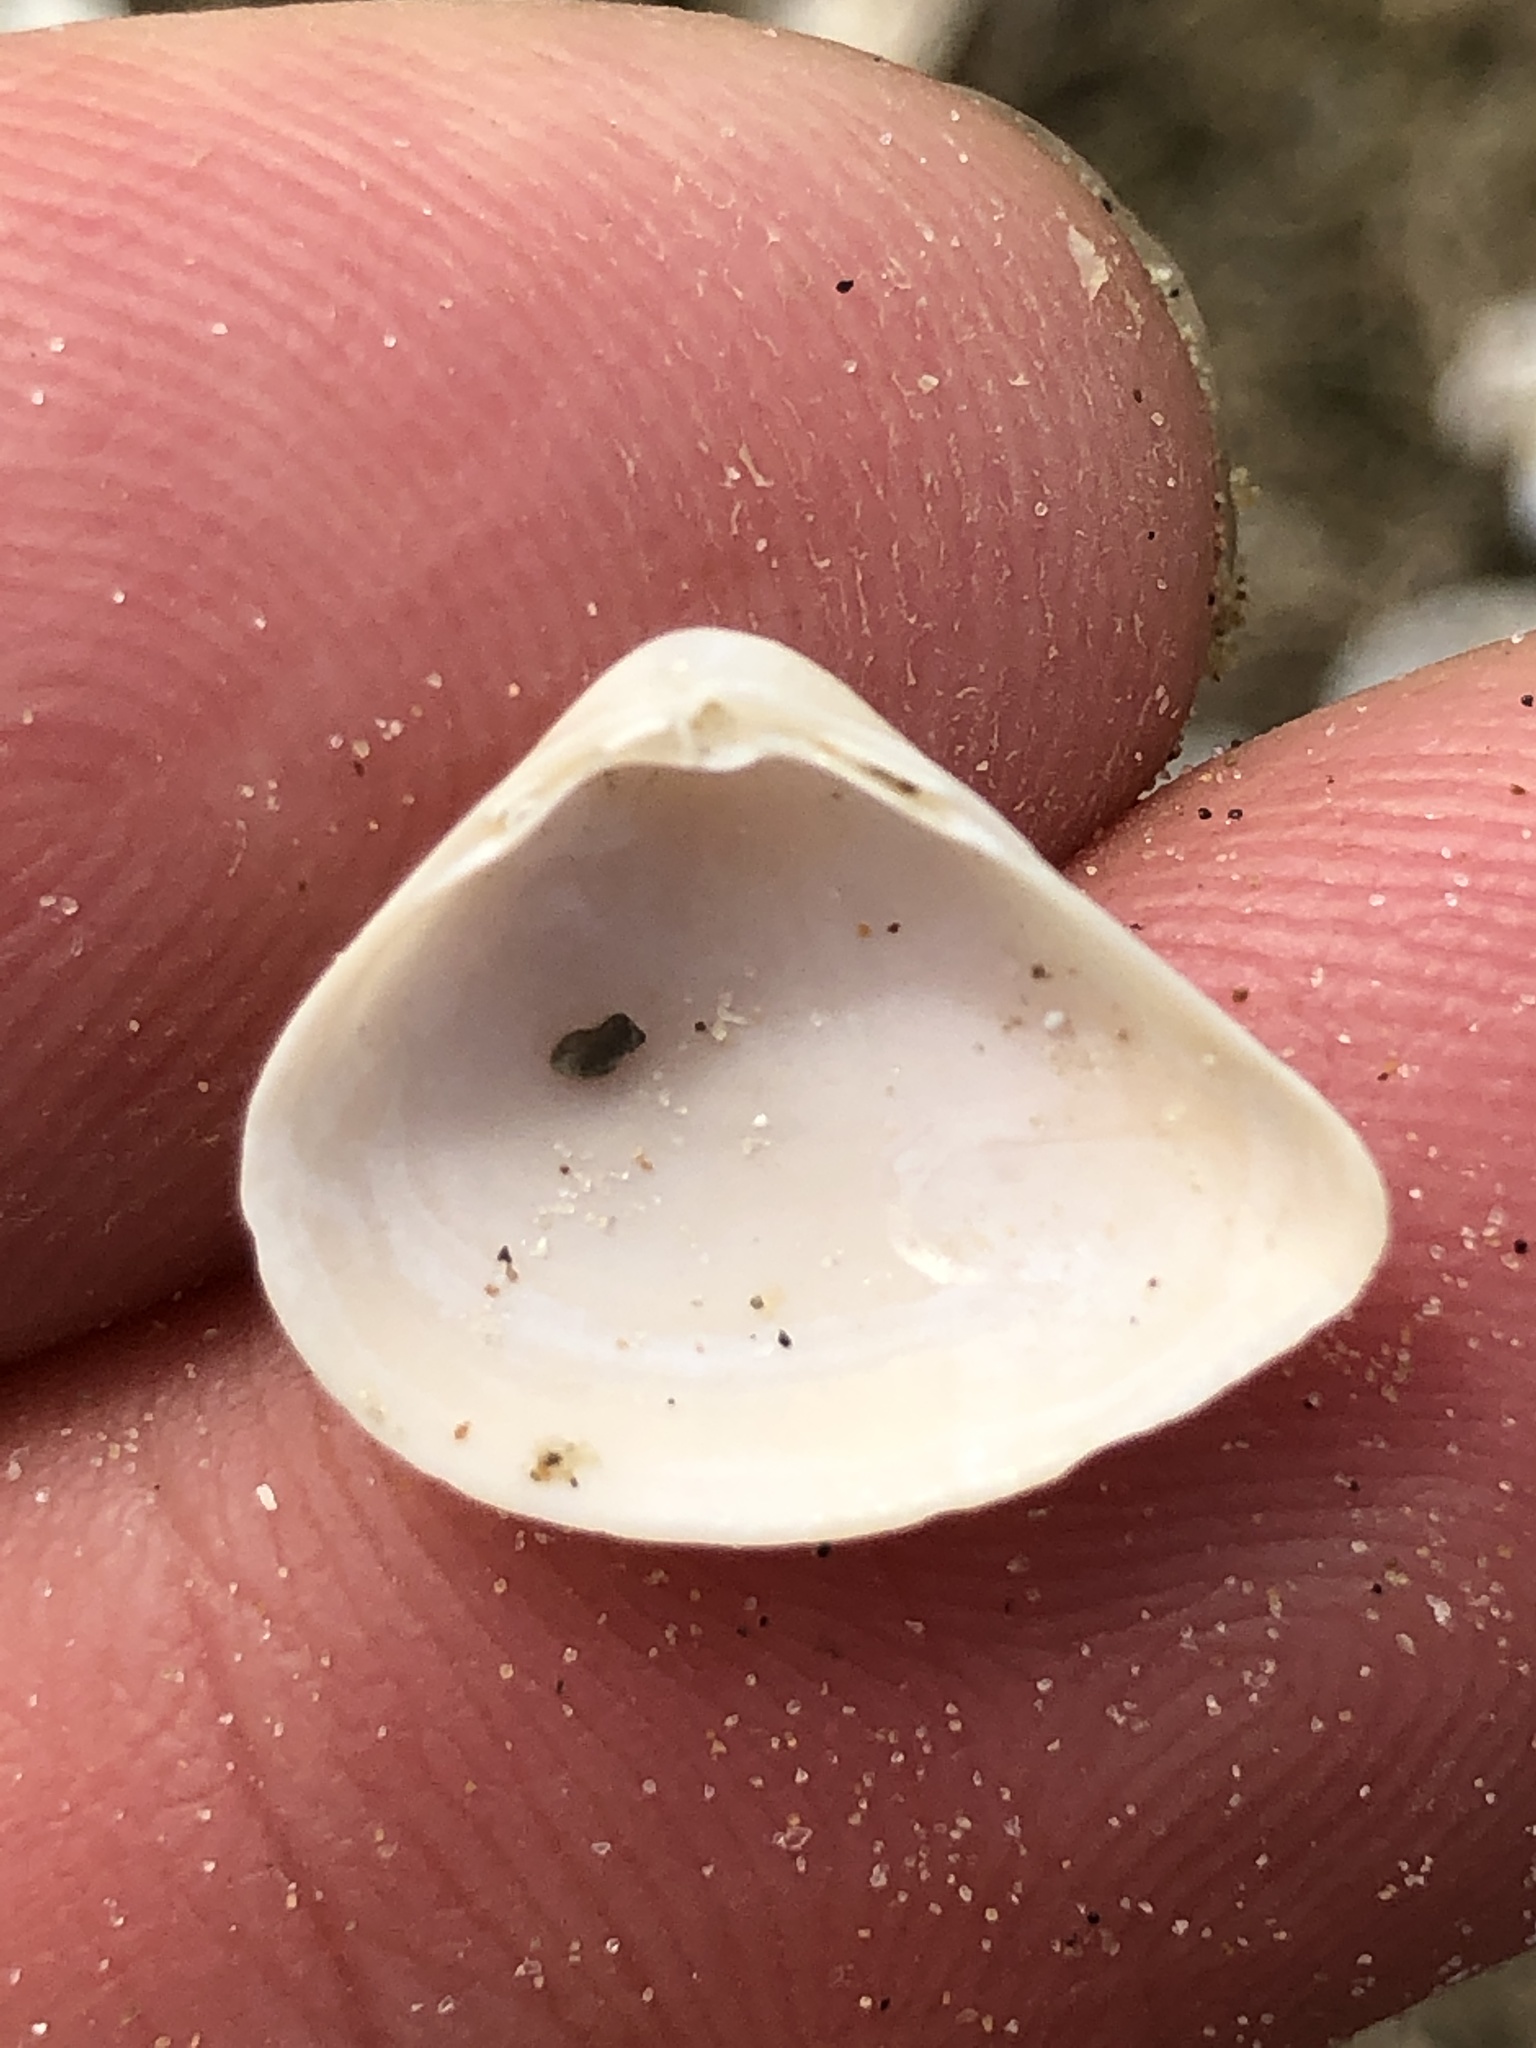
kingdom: Animalia
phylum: Mollusca
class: Bivalvia
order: Venerida
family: Mactridae
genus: Mulinia
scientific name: Mulinia lateralis
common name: Dwarf surfclam
